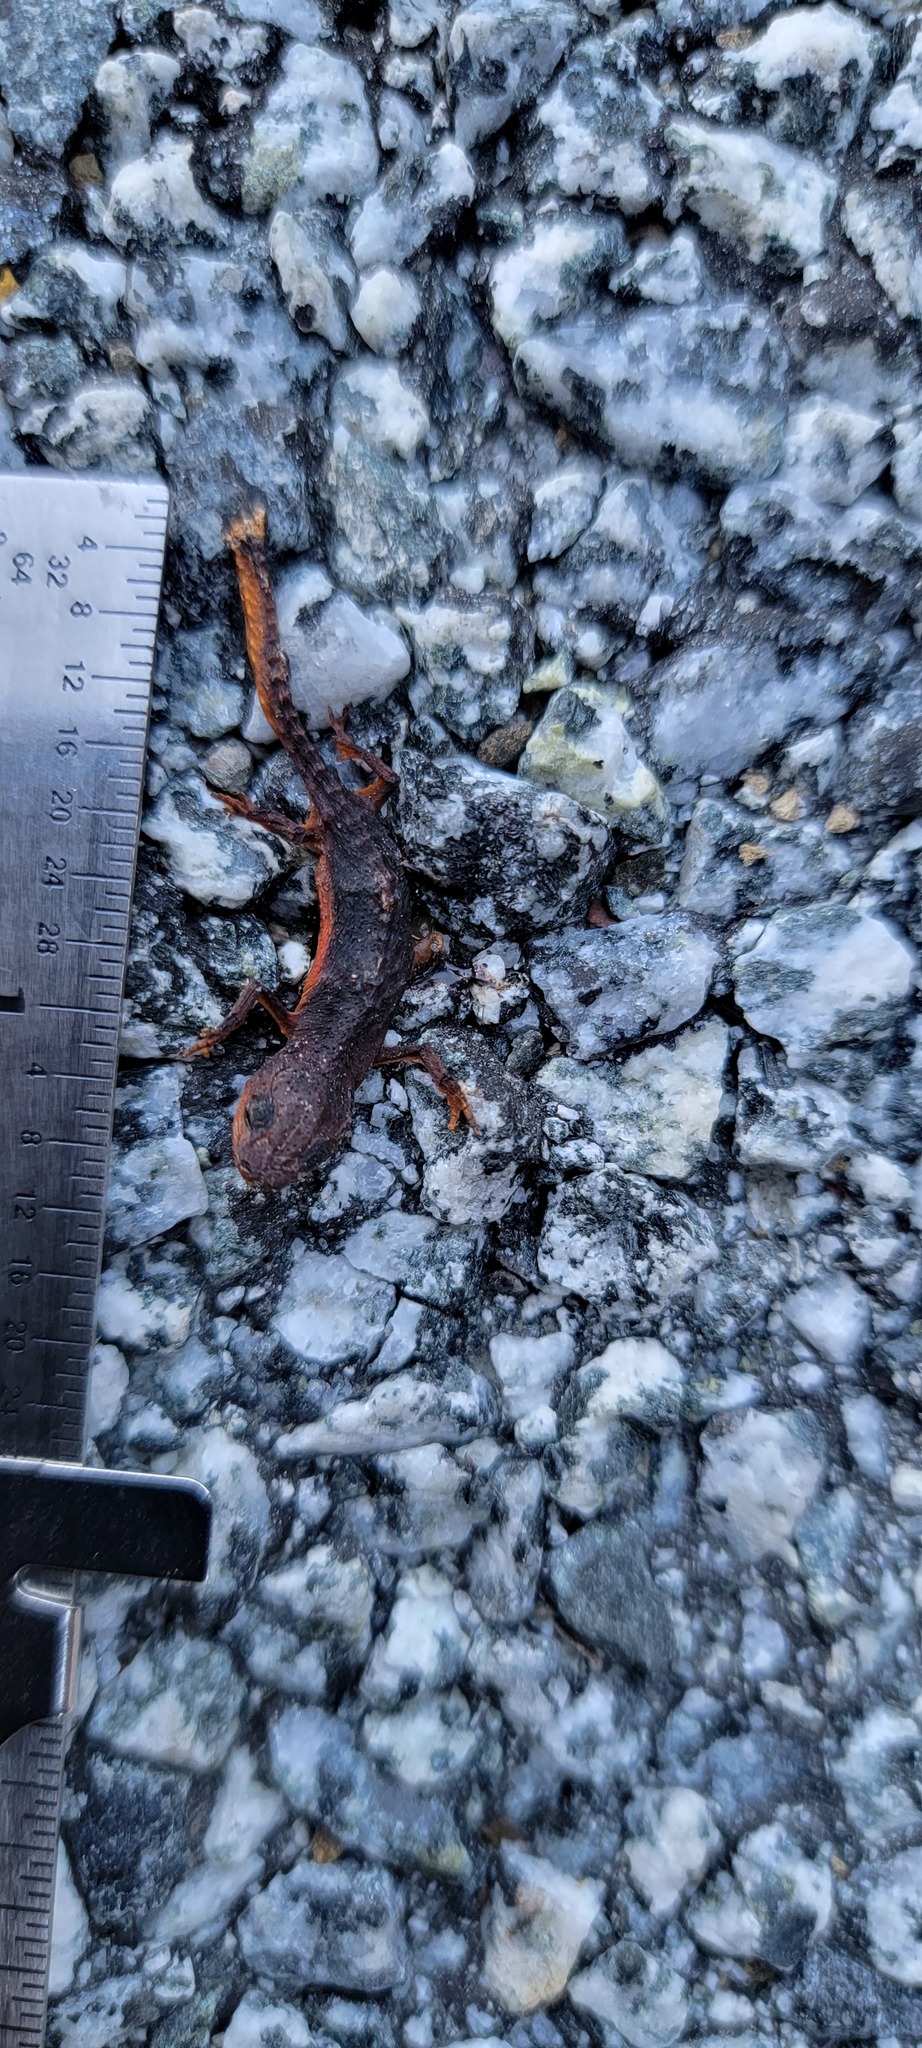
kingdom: Animalia
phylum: Chordata
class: Amphibia
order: Caudata
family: Salamandridae
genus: Taricha
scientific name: Taricha torosa
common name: California newt
